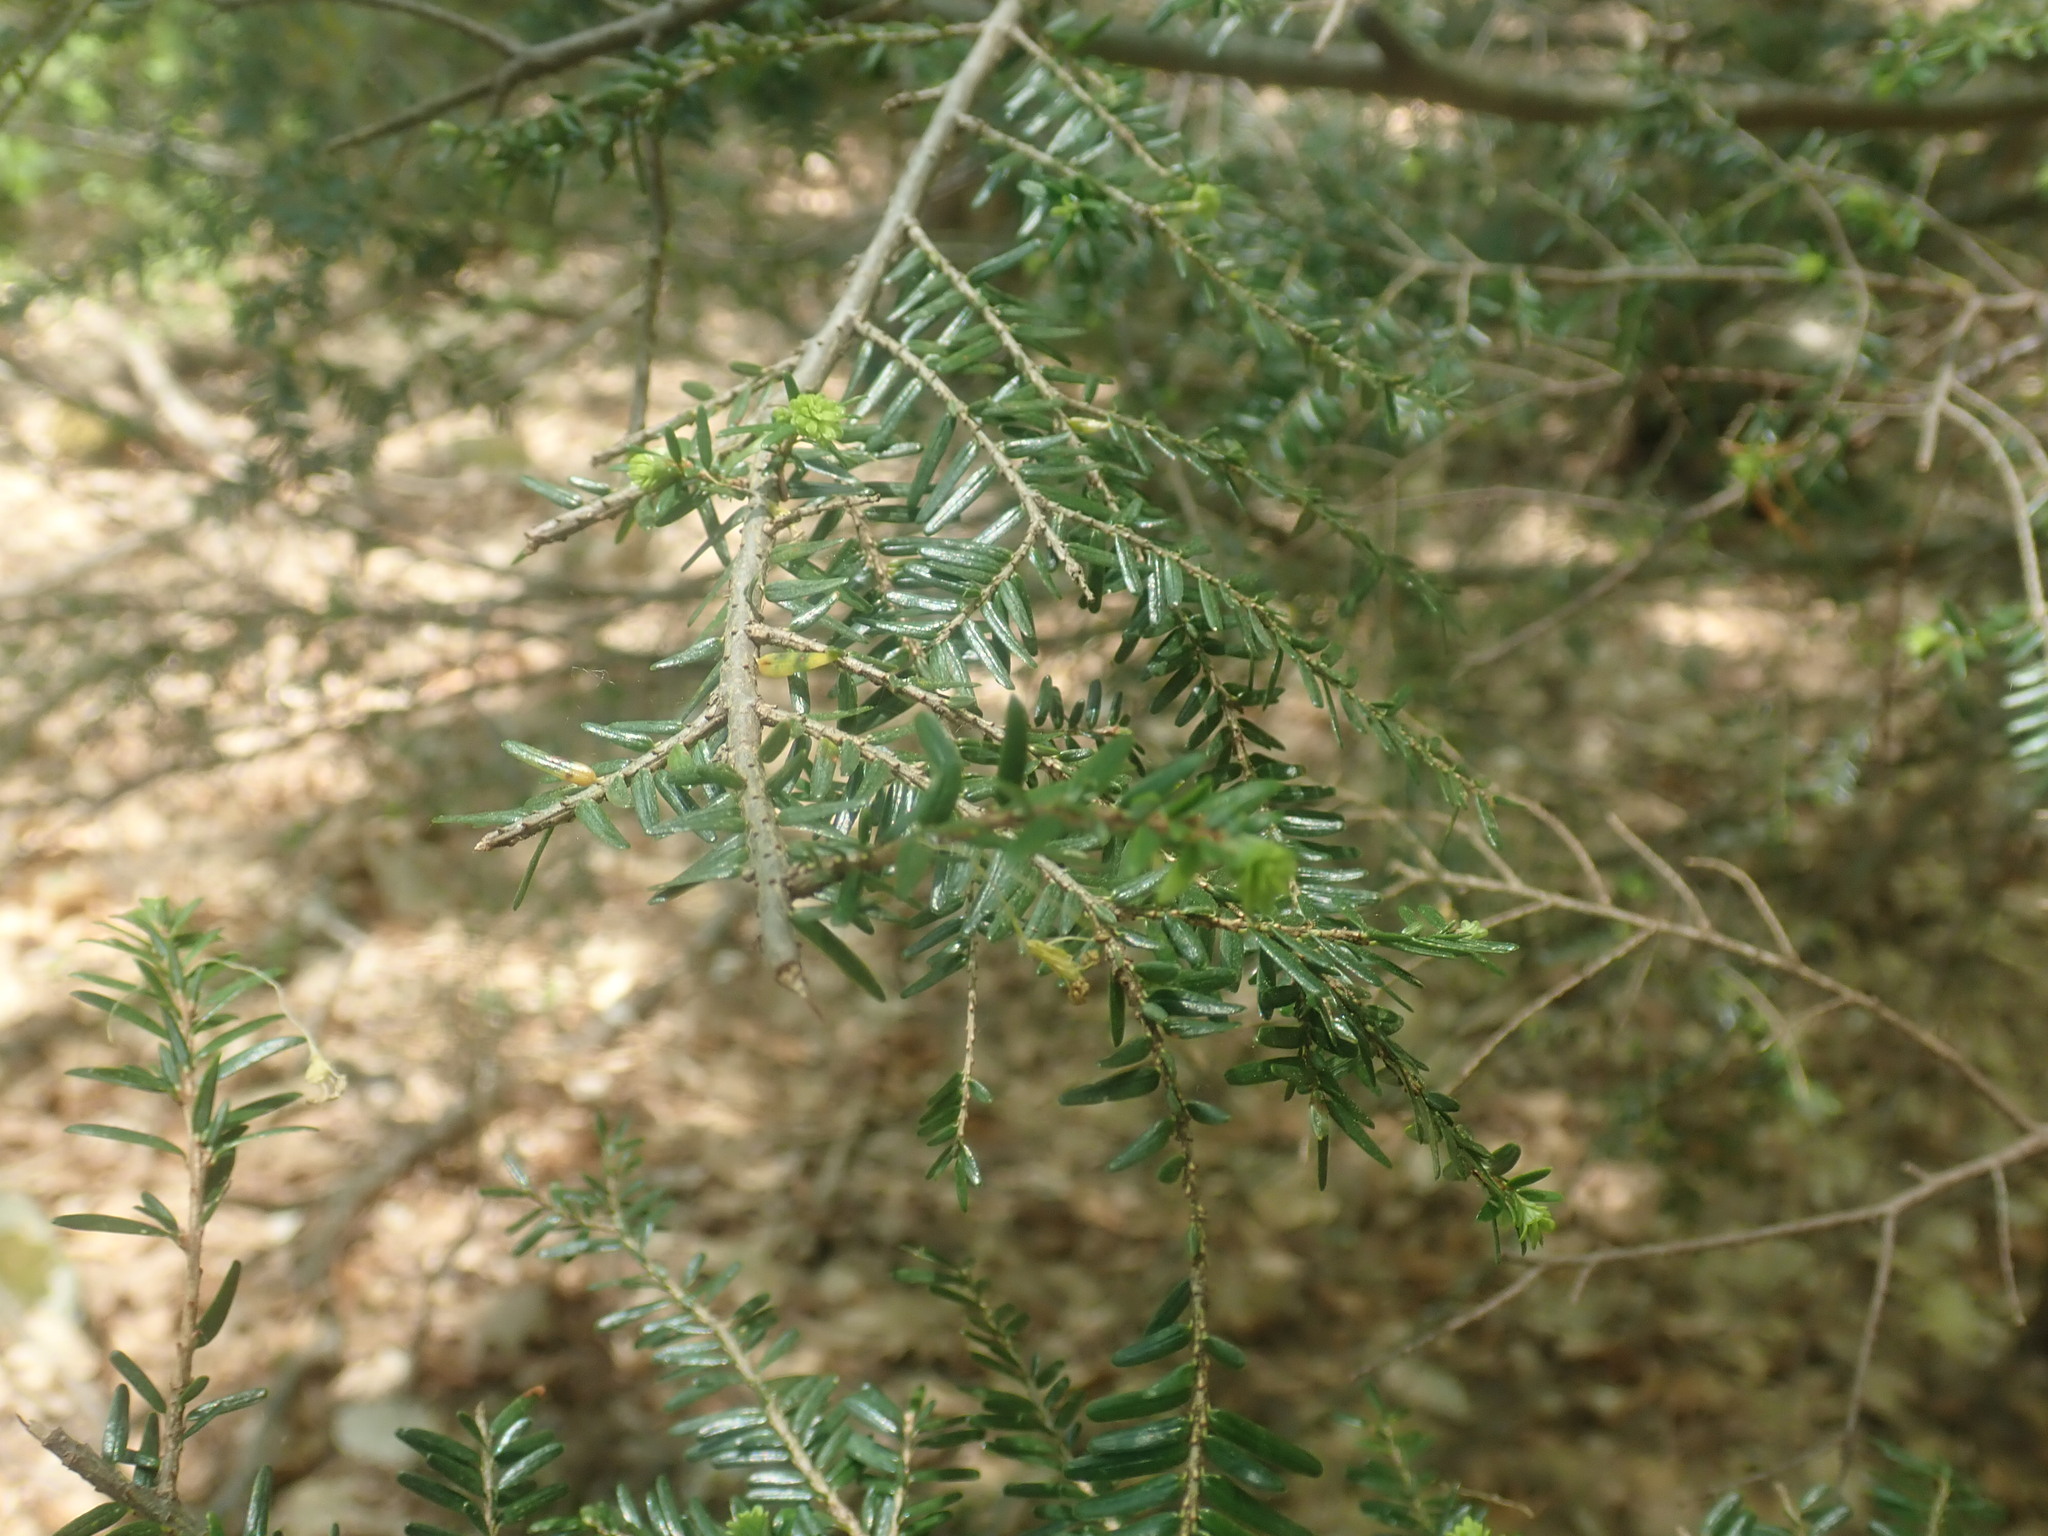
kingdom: Plantae
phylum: Tracheophyta
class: Pinopsida
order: Pinales
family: Pinaceae
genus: Tsuga
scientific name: Tsuga canadensis
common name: Eastern hemlock
